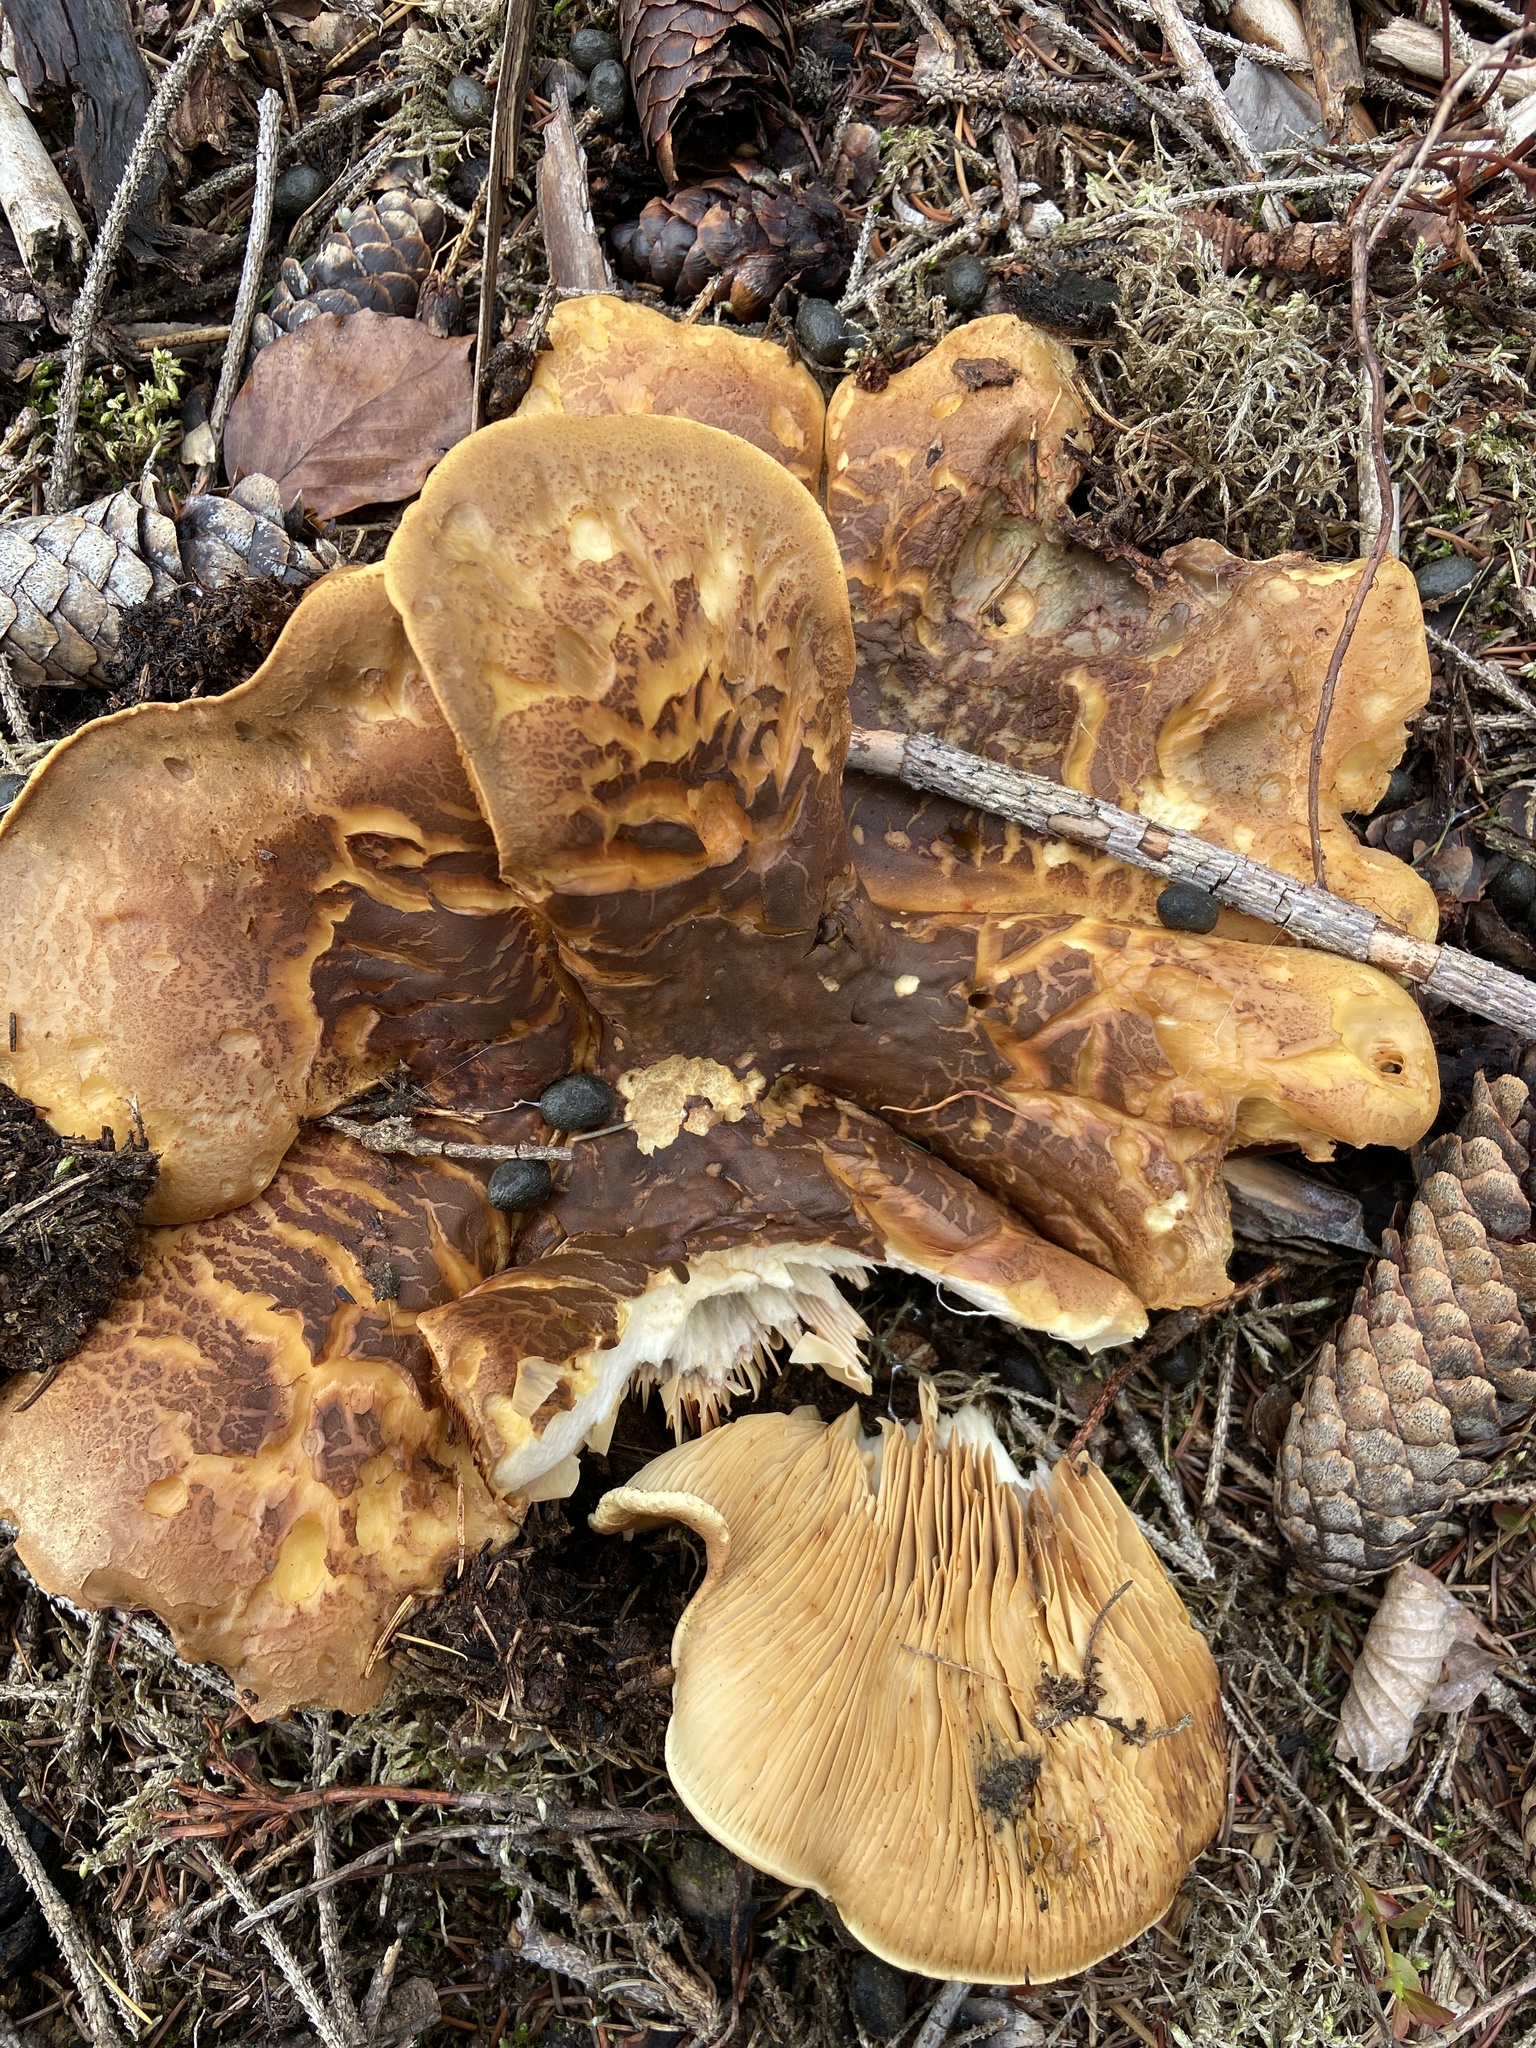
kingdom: Fungi
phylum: Basidiomycota
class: Agaricomycetes
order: Boletales
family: Tapinellaceae
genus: Tapinella
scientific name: Tapinella atrotomentosa
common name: Velvet rollrim
